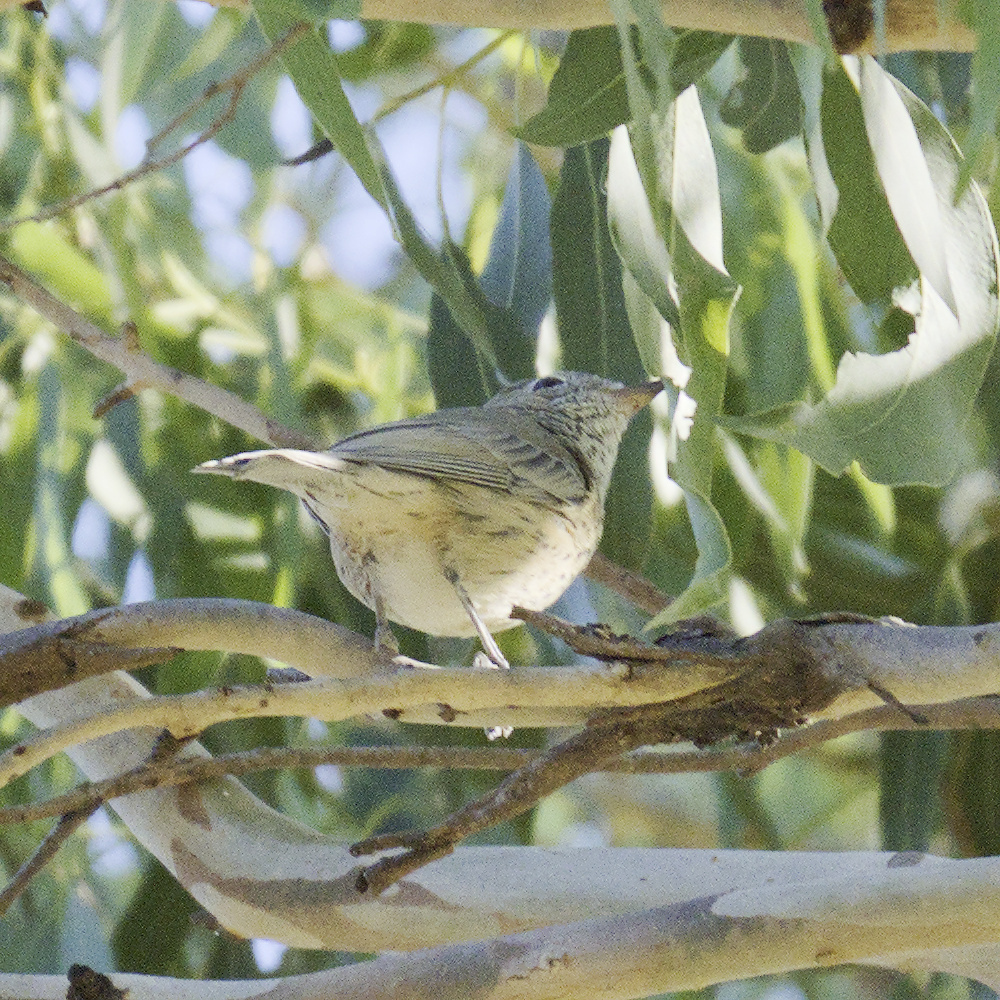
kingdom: Animalia
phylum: Chordata
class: Aves
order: Passeriformes
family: Pachycephalidae
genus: Pachycephala
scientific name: Pachycephala rufiventris
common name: Rufous whistler
